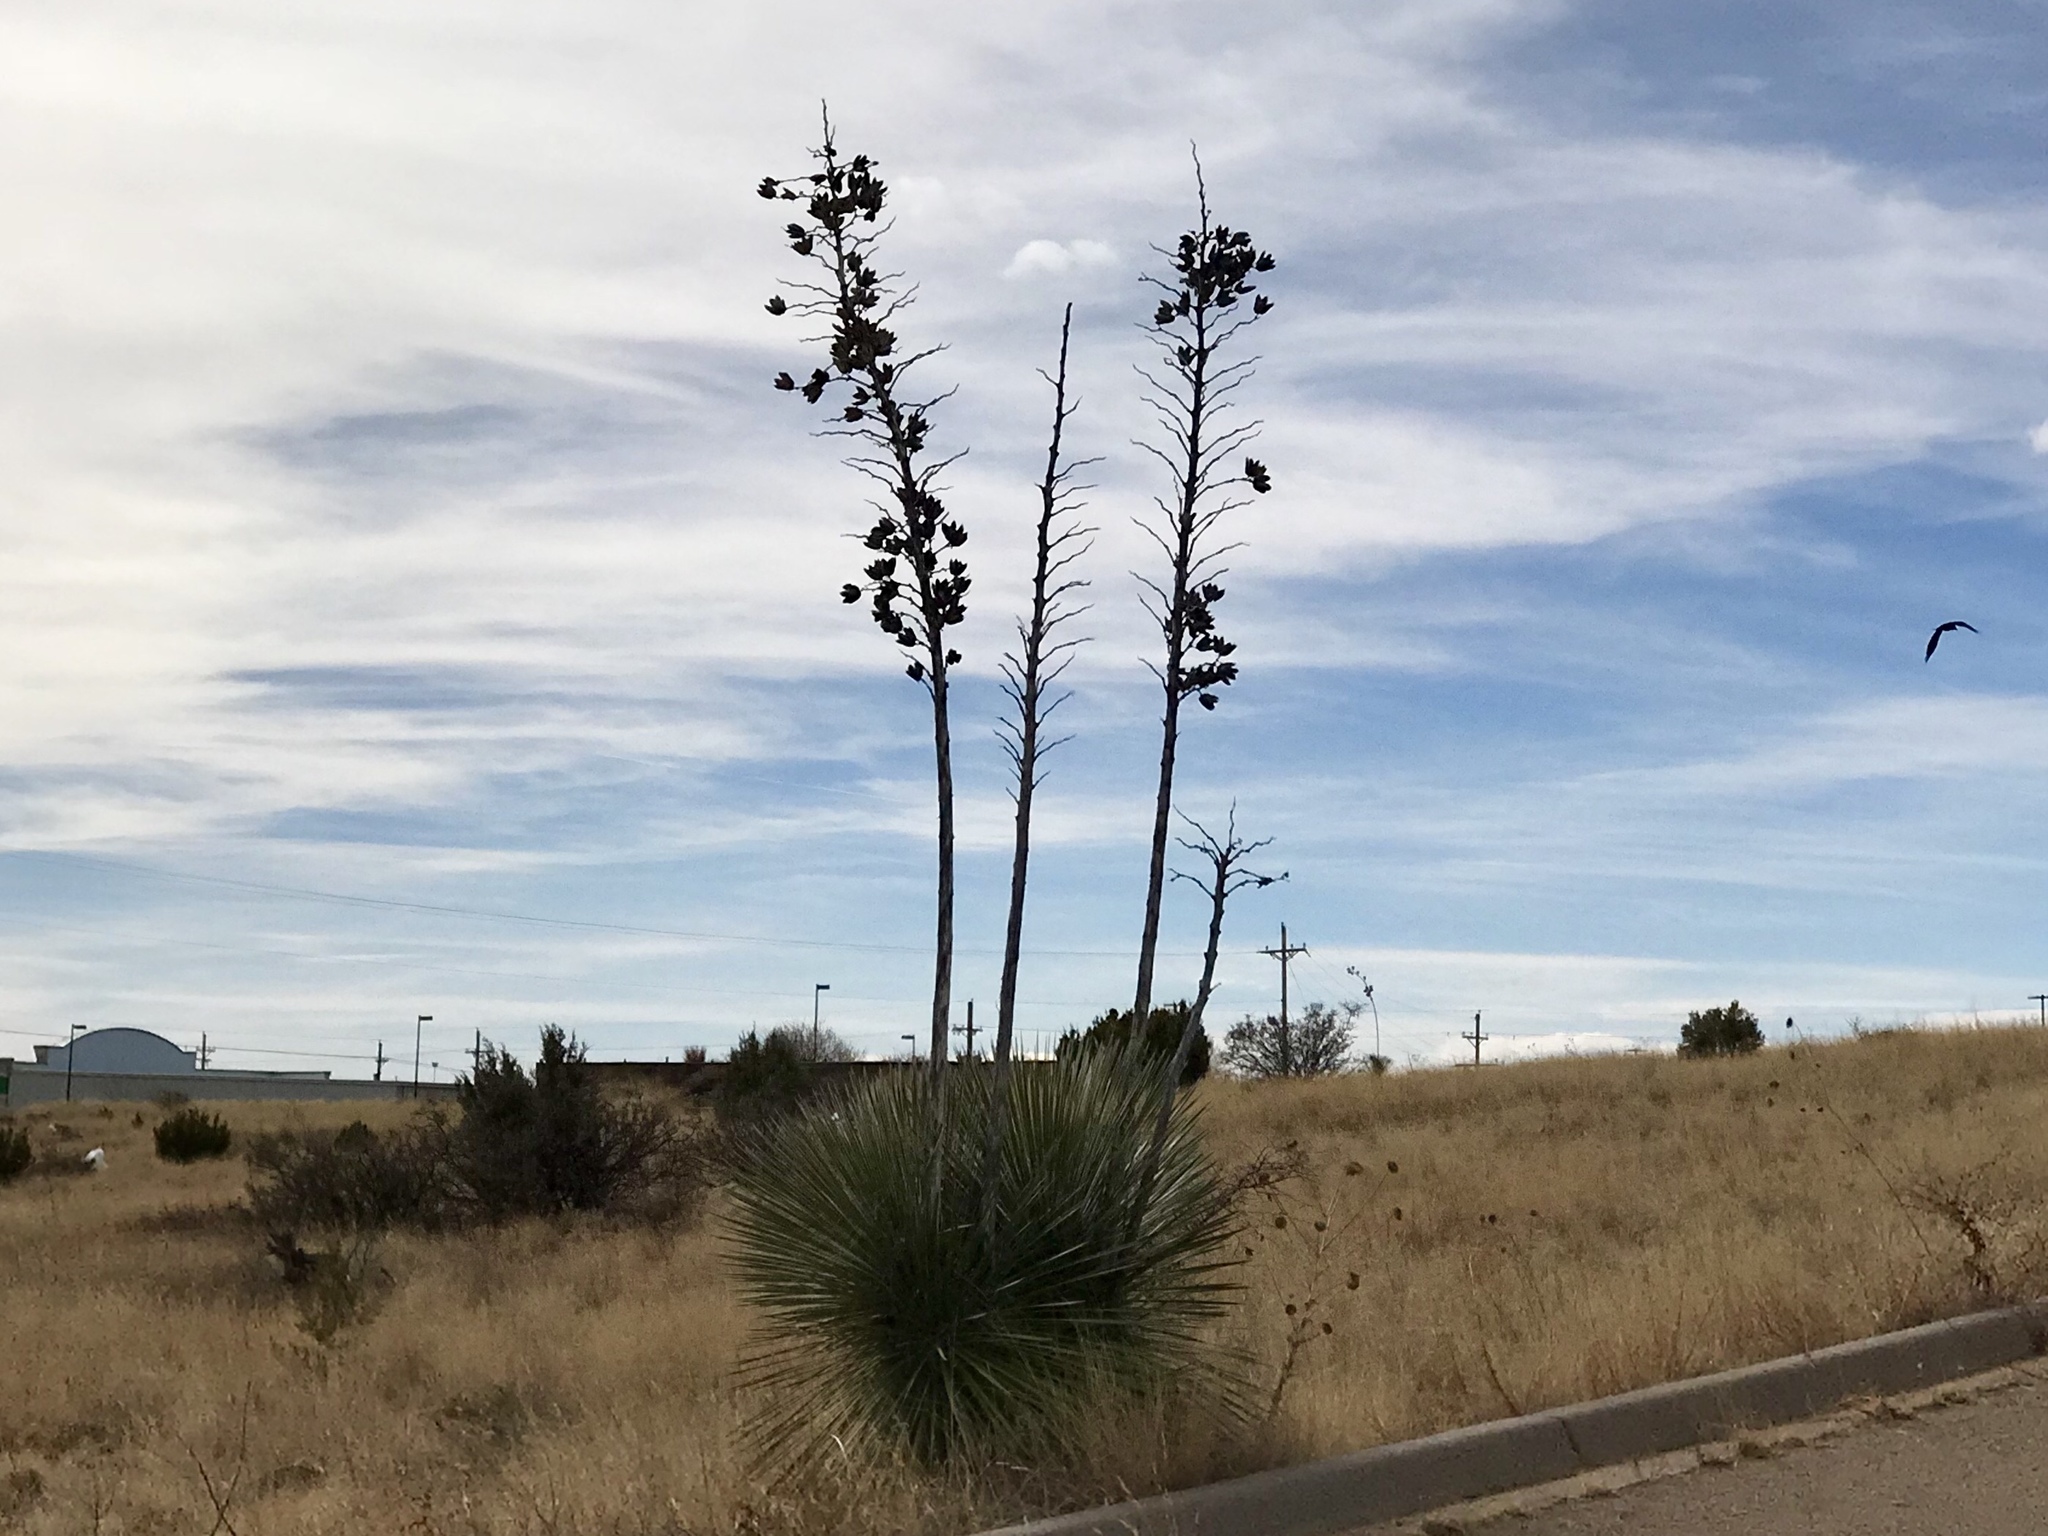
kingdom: Plantae
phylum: Tracheophyta
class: Liliopsida
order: Asparagales
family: Asparagaceae
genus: Yucca
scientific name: Yucca elata
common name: Palmella
